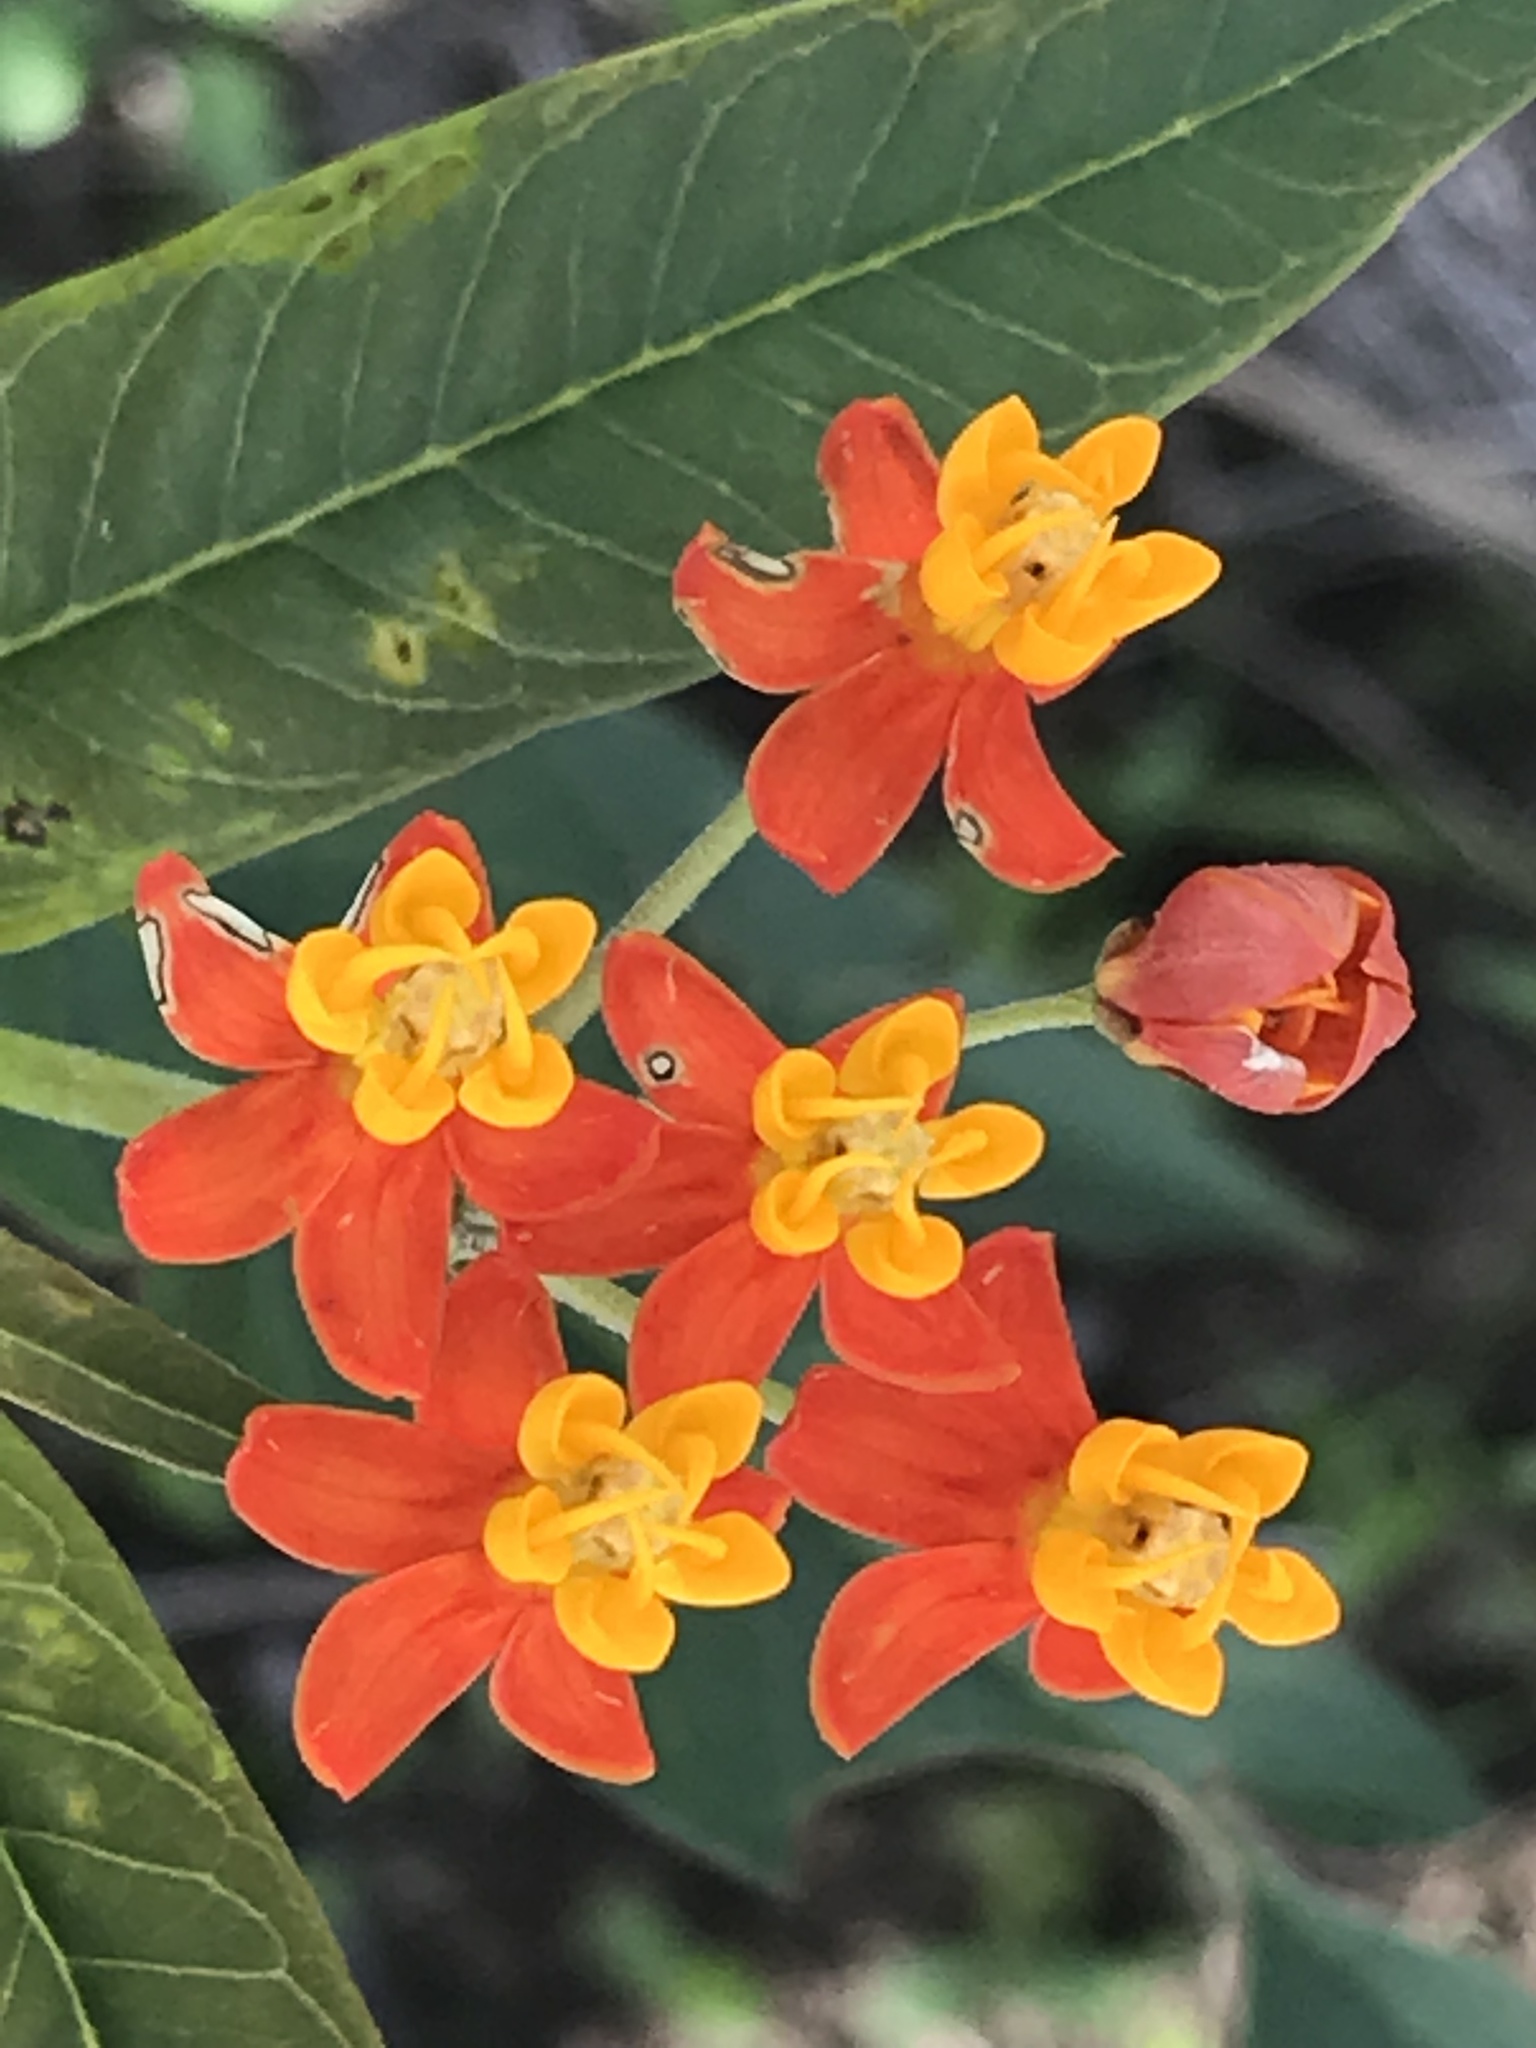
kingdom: Plantae
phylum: Tracheophyta
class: Magnoliopsida
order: Gentianales
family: Apocynaceae
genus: Asclepias
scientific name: Asclepias curassavica
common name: Bloodflower
